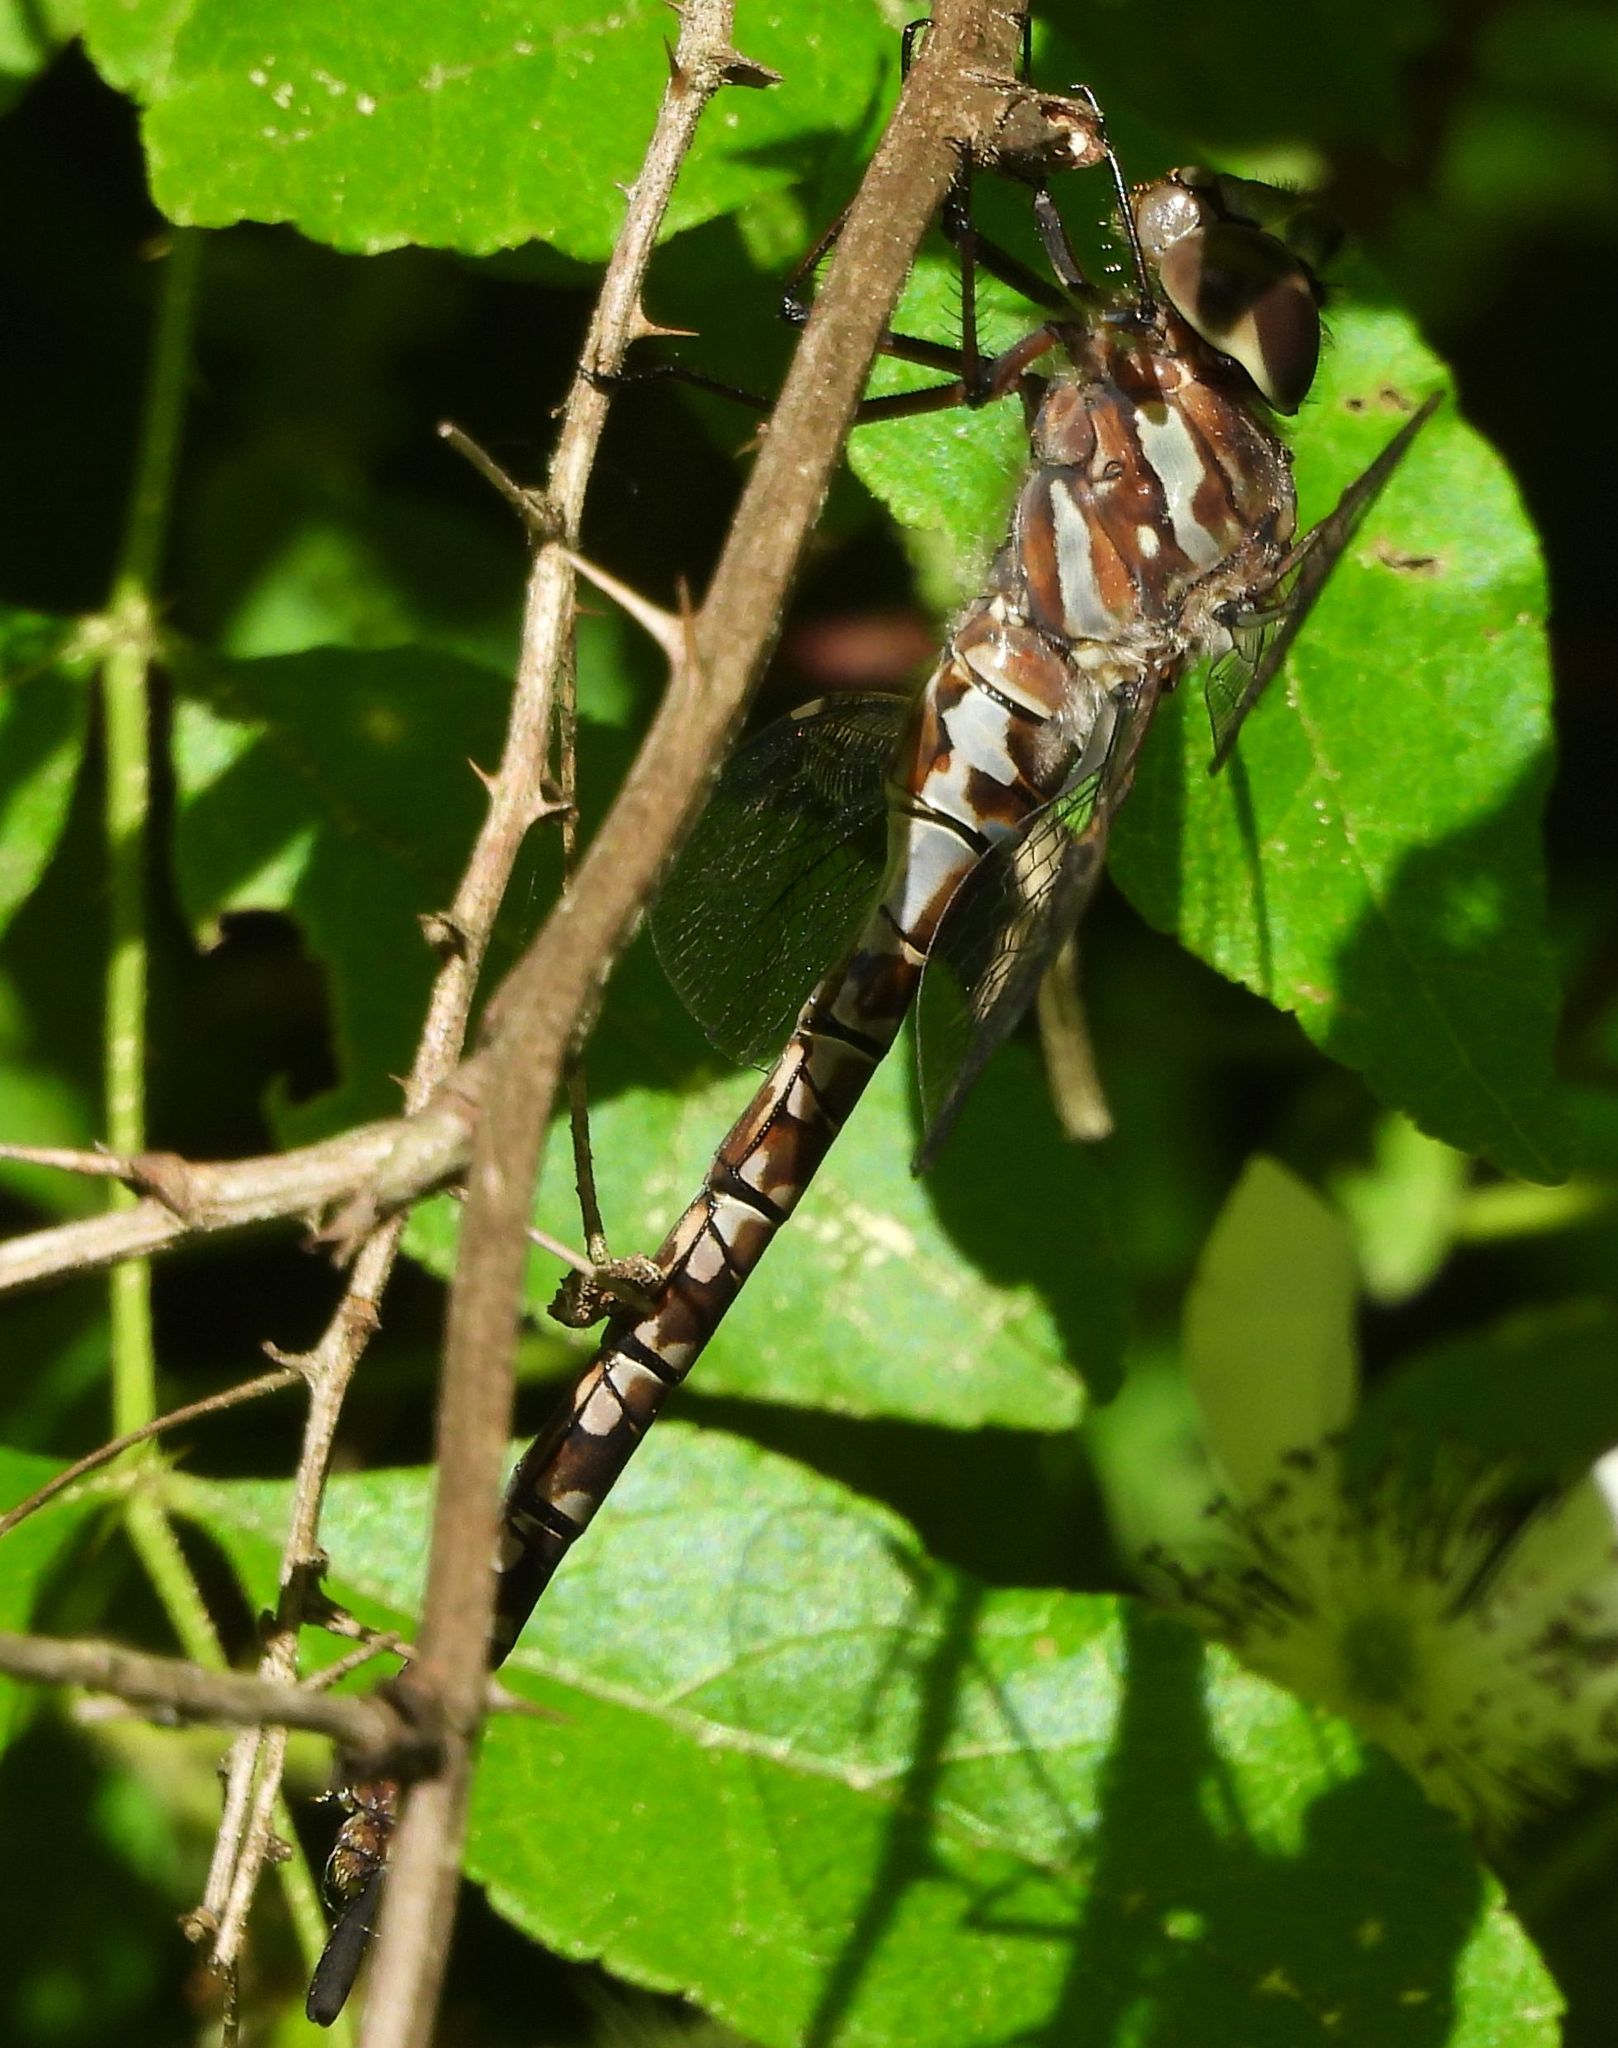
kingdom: Animalia
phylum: Arthropoda
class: Insecta
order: Odonata
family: Aeshnidae
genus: Aeshna
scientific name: Aeshna canadensis
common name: Canada darner
